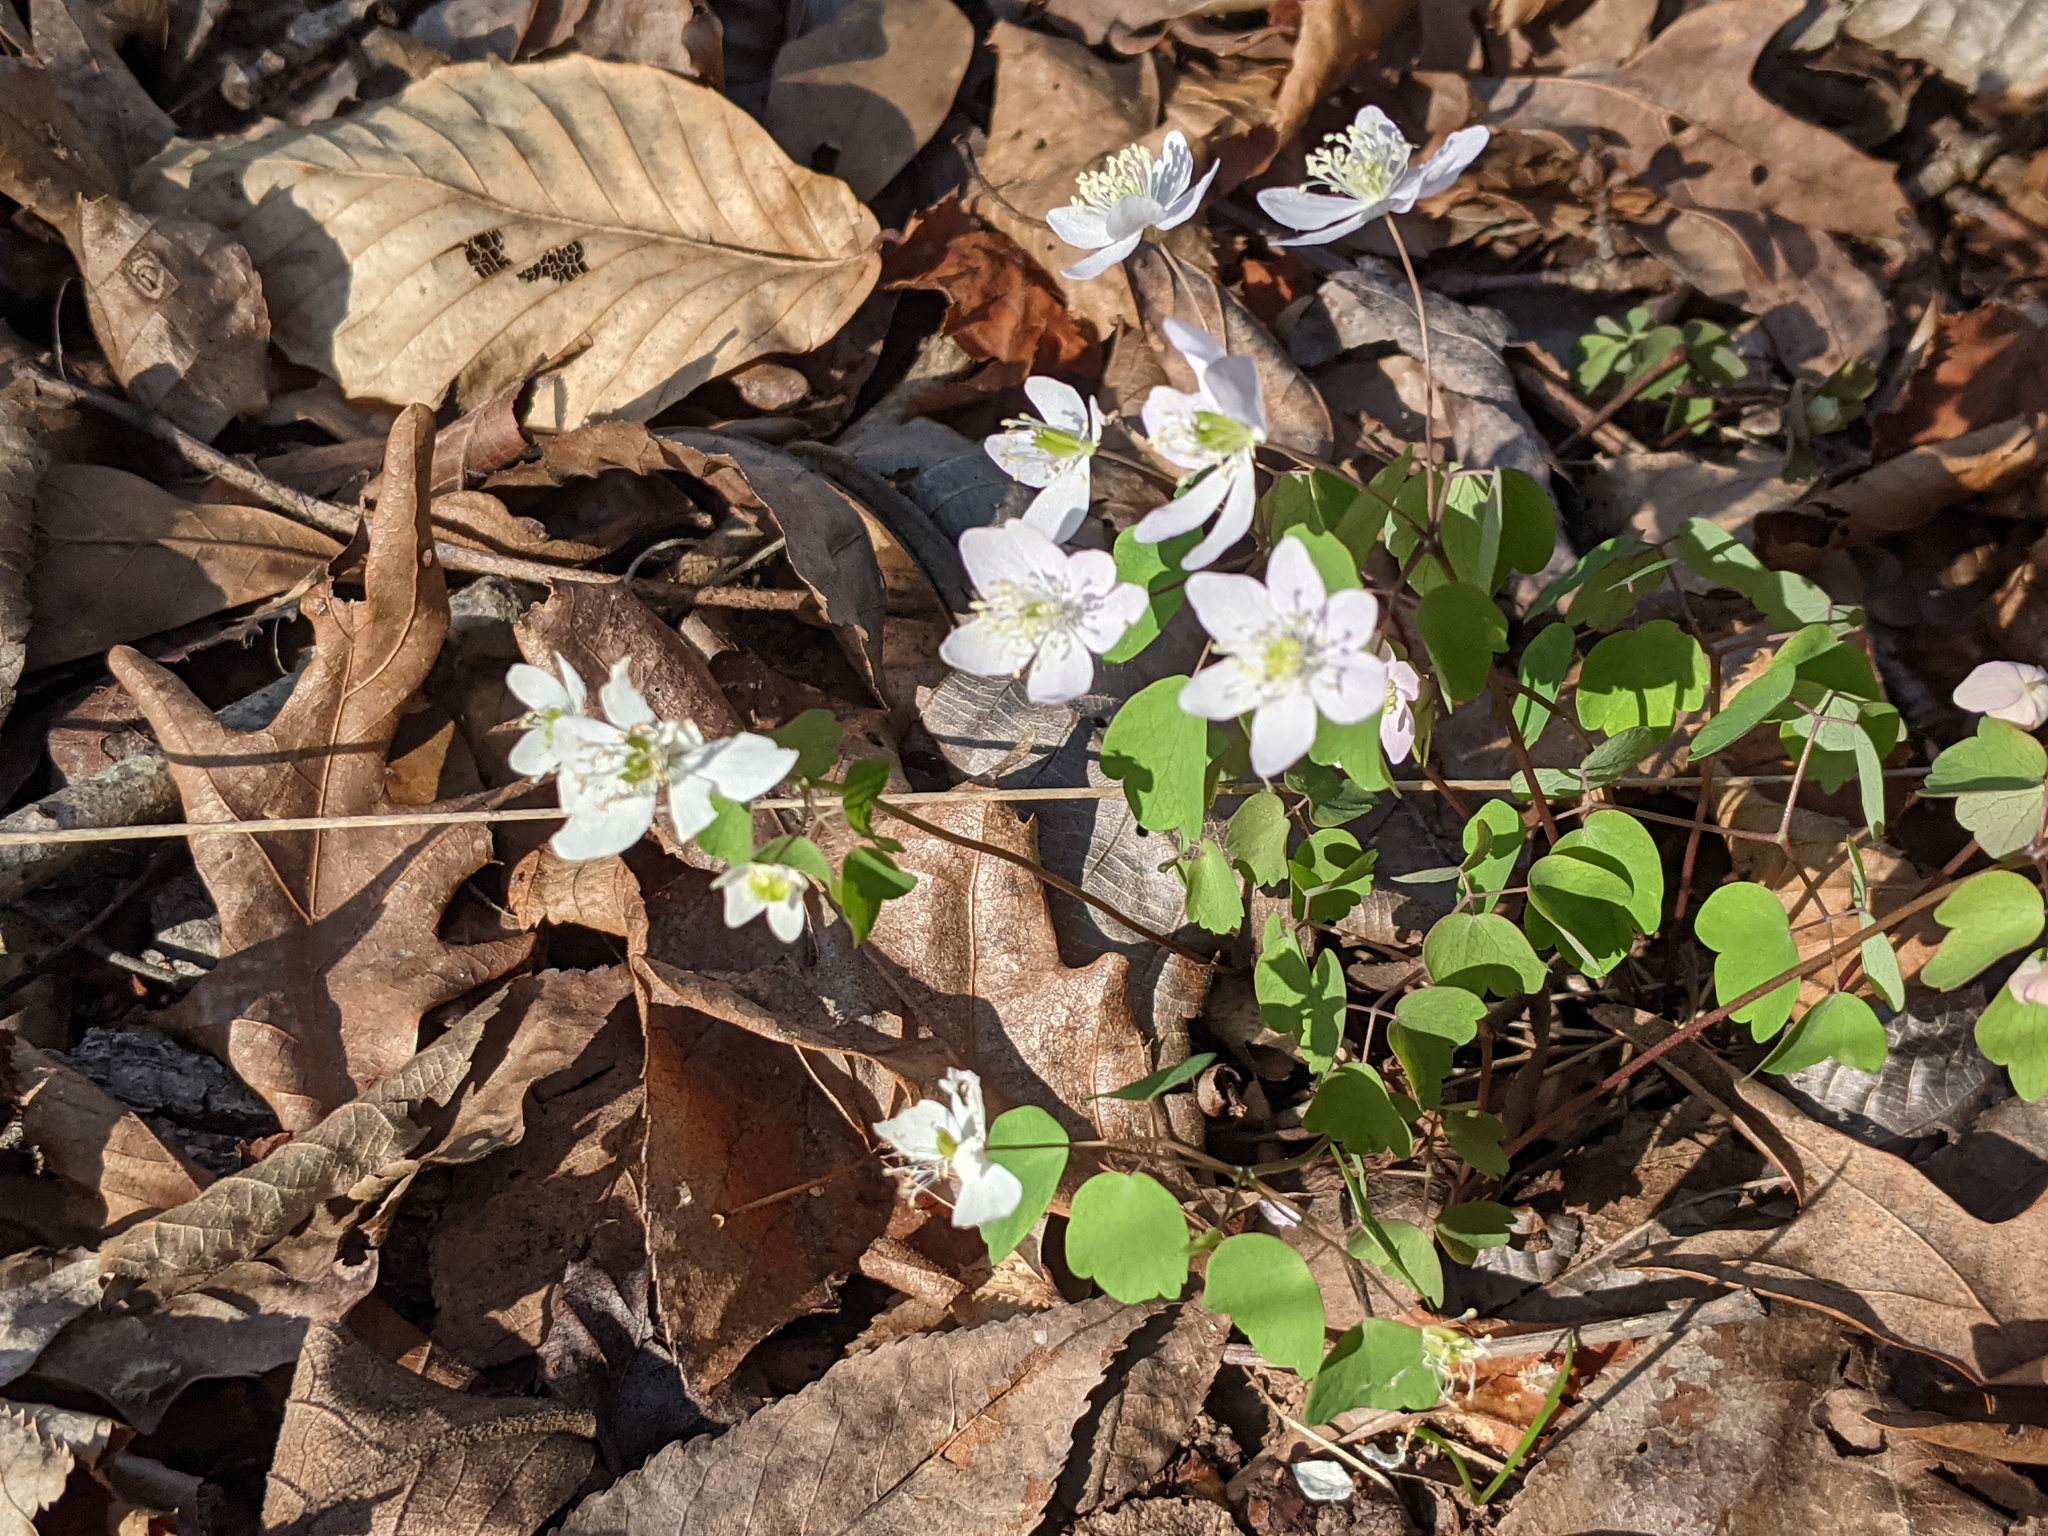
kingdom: Plantae
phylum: Tracheophyta
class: Magnoliopsida
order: Ranunculales
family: Ranunculaceae
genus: Thalictrum
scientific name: Thalictrum thalictroides
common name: Rue-anemone
